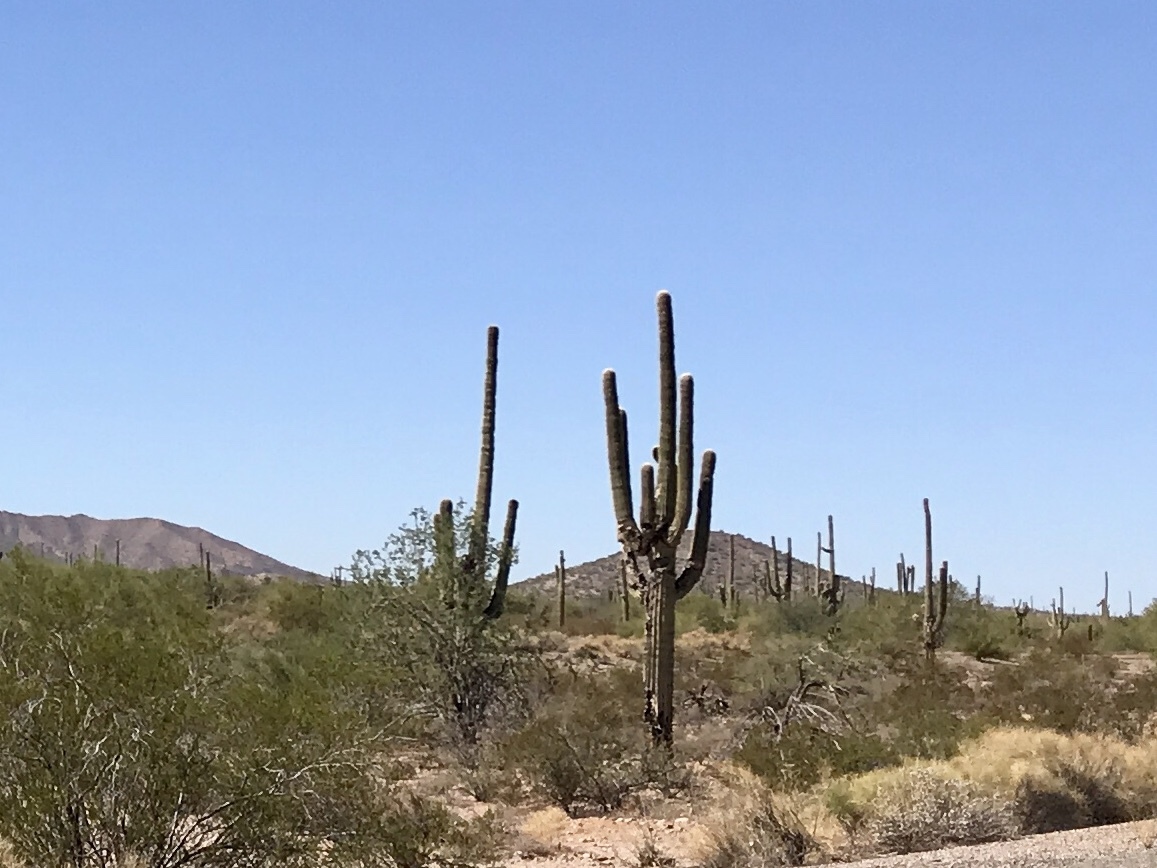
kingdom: Plantae
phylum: Tracheophyta
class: Magnoliopsida
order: Caryophyllales
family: Cactaceae
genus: Carnegiea
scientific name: Carnegiea gigantea
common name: Saguaro
